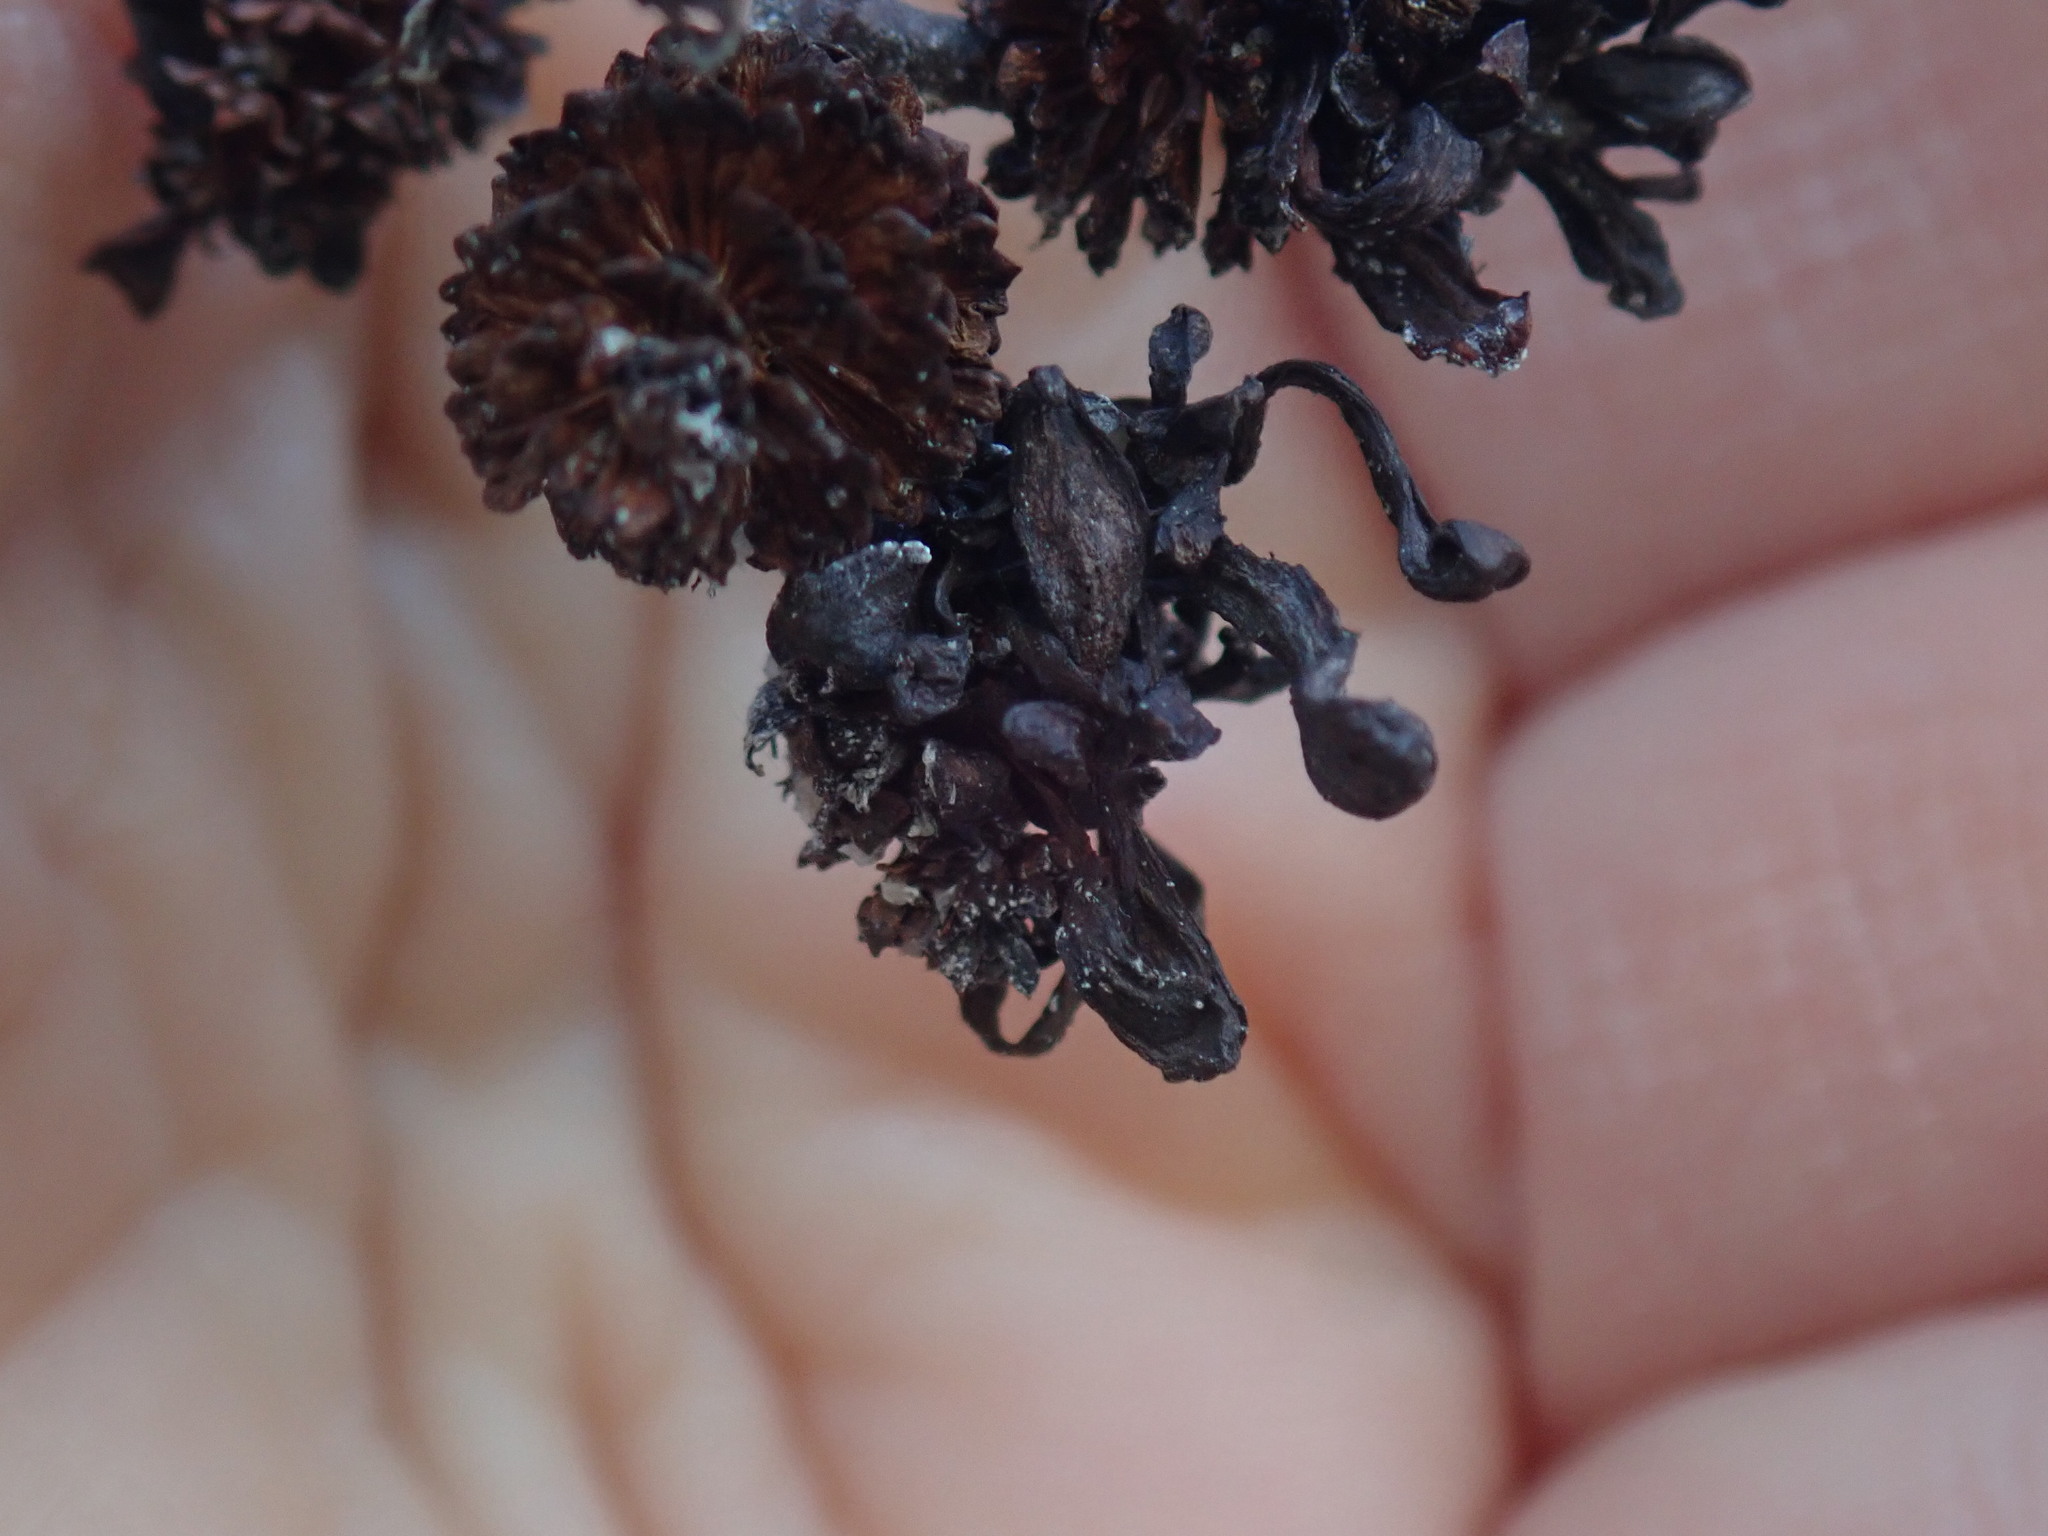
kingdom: Fungi
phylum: Ascomycota
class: Taphrinomycetes
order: Taphrinales
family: Taphrinaceae
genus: Taphrina
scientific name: Taphrina robinsoniana
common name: Eastern american alder tongue gall fungus
